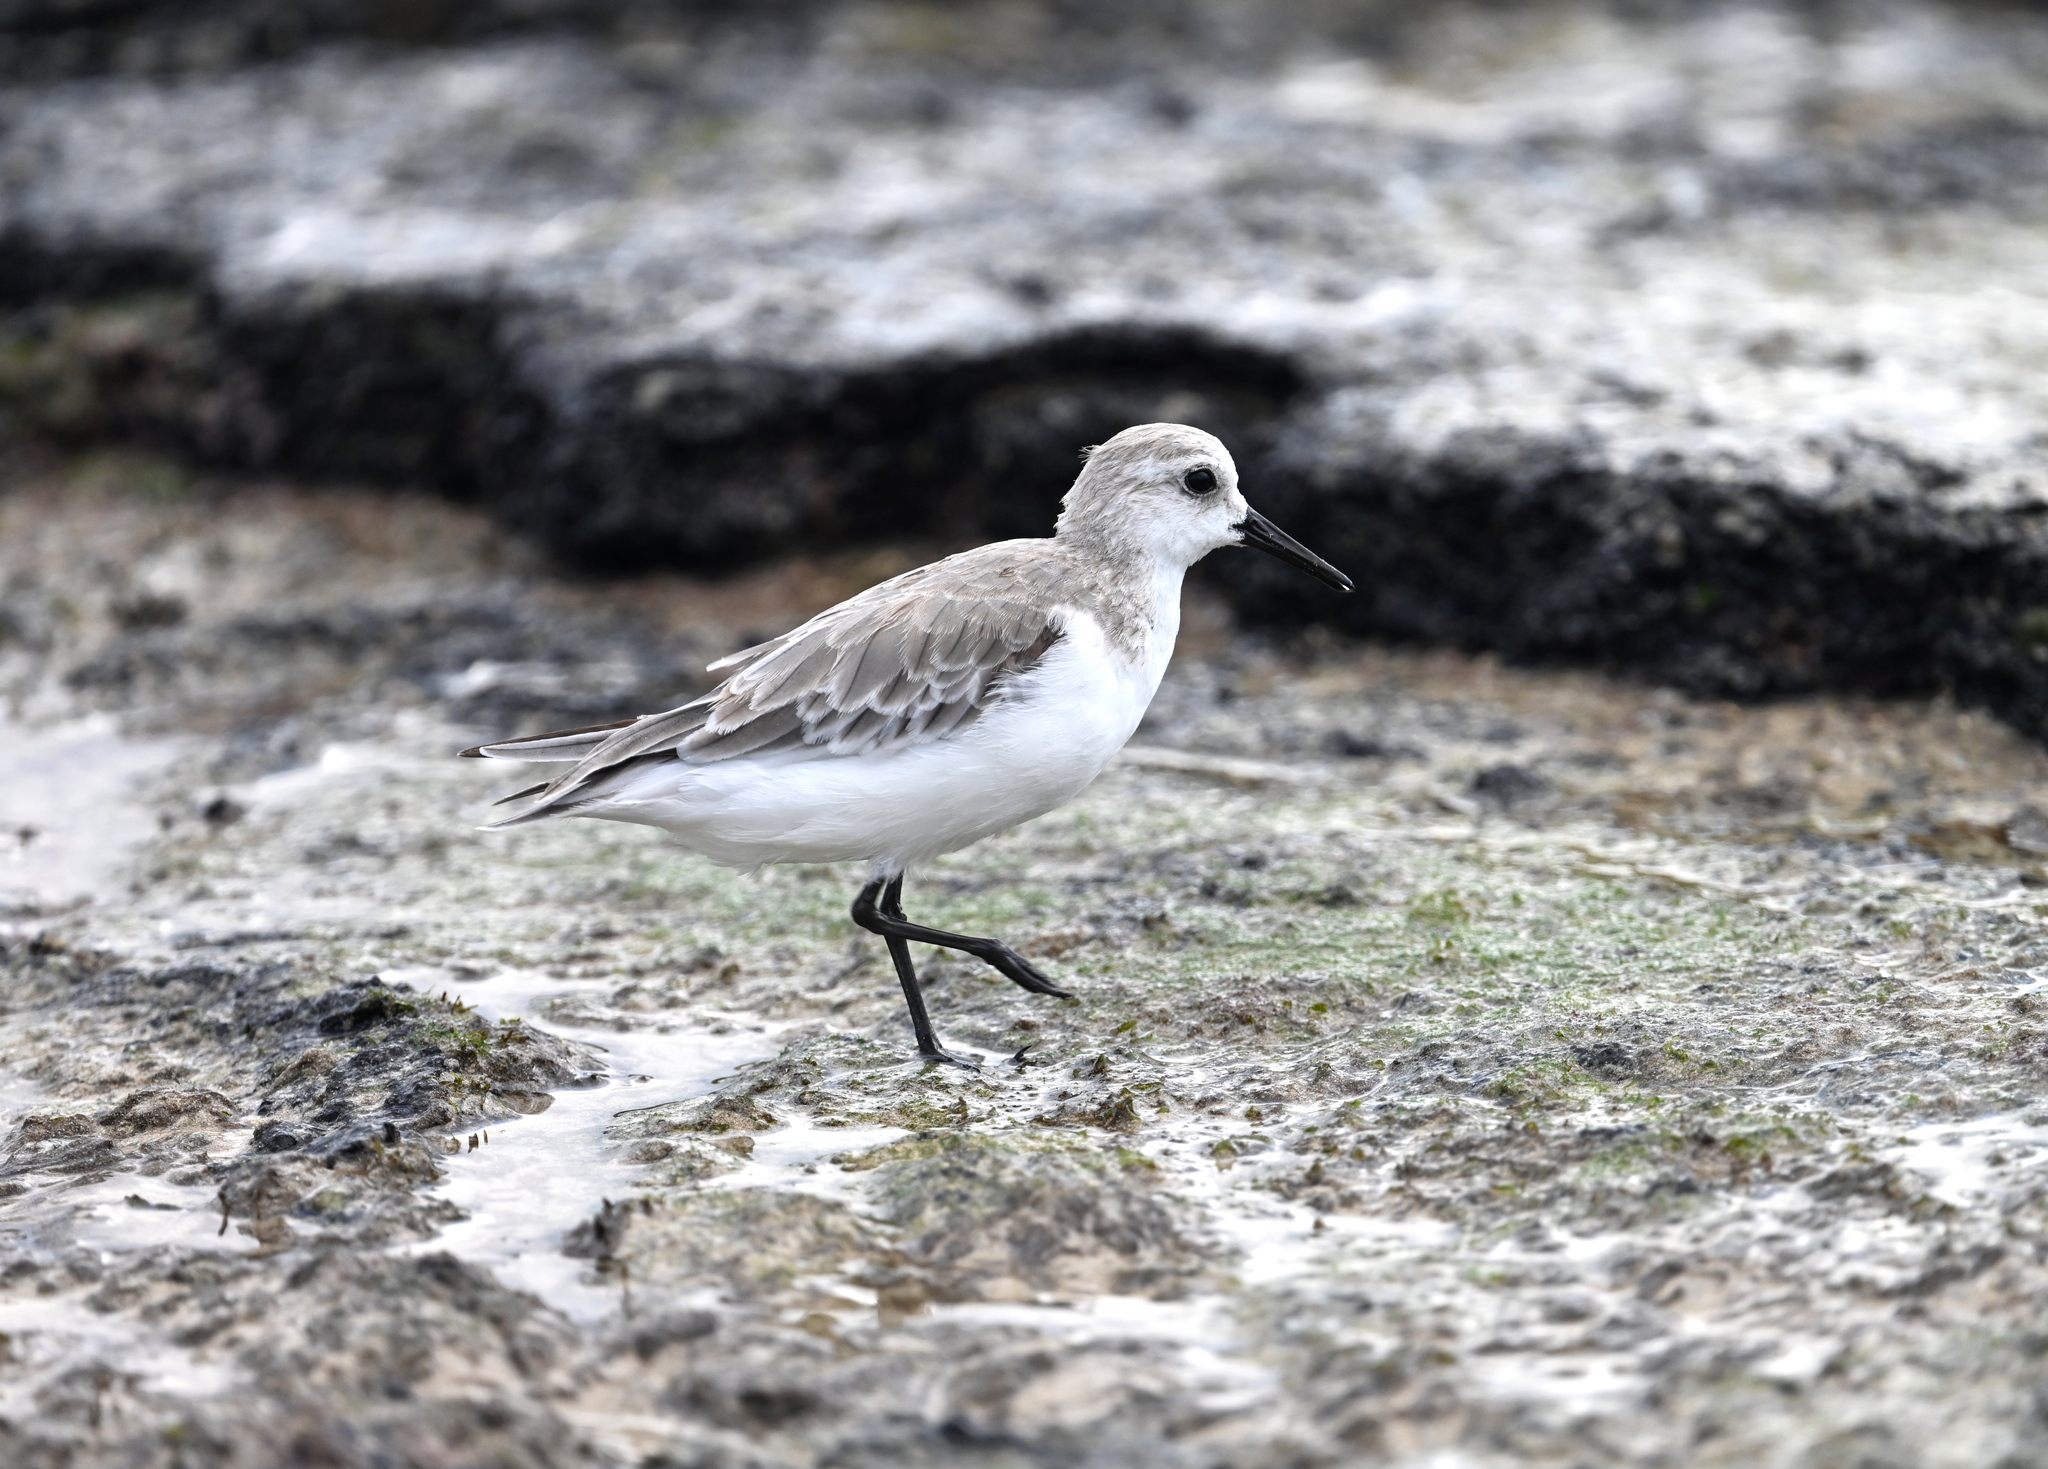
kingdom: Animalia
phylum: Chordata
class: Aves
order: Charadriiformes
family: Scolopacidae
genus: Calidris
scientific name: Calidris alba
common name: Sanderling
